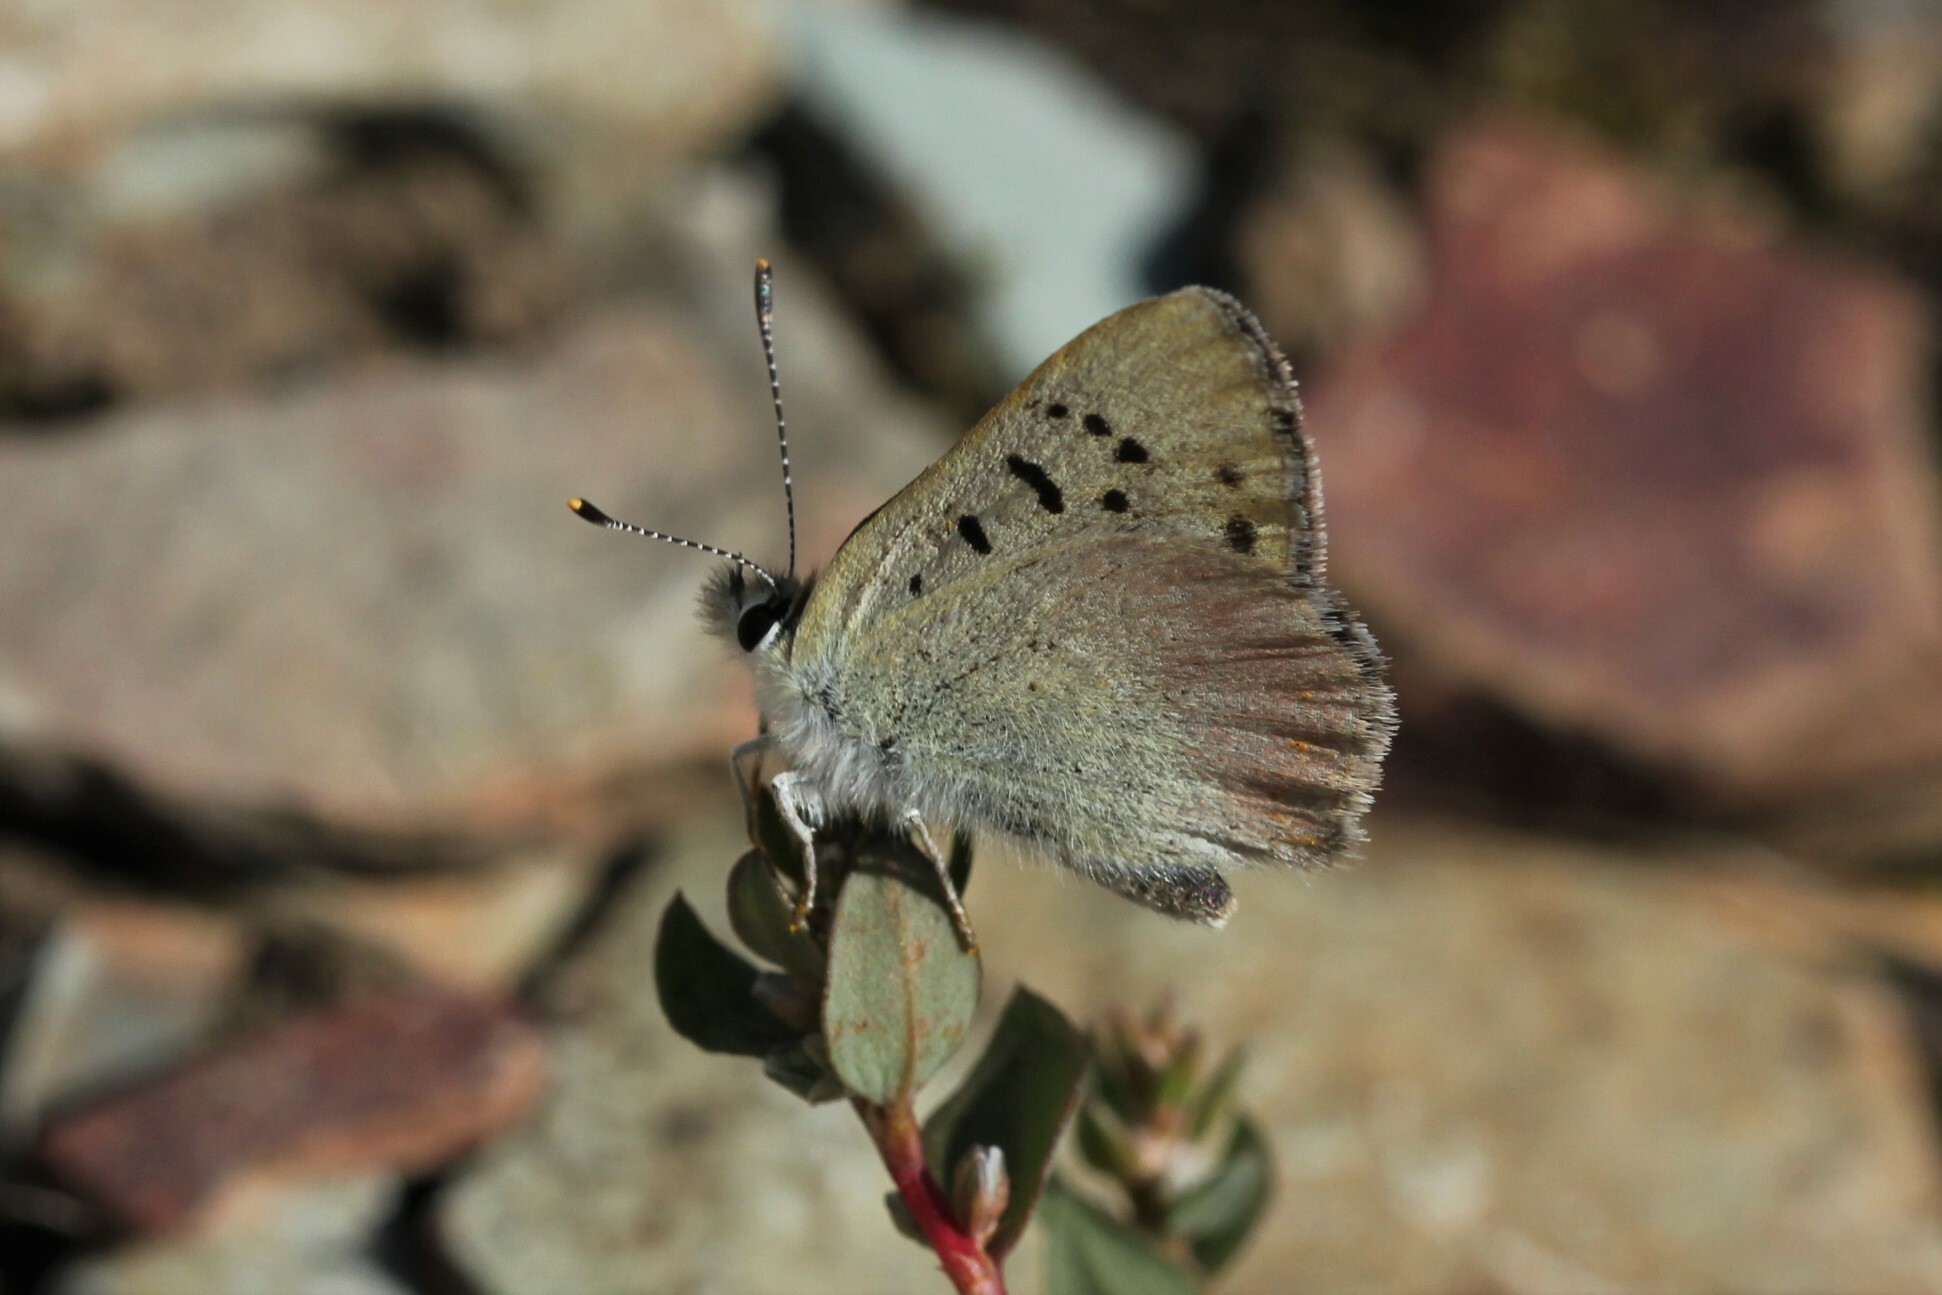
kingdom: Animalia
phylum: Arthropoda
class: Insecta
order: Lepidoptera
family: Lycaenidae
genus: Tharsalea
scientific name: Tharsalea nivalis
